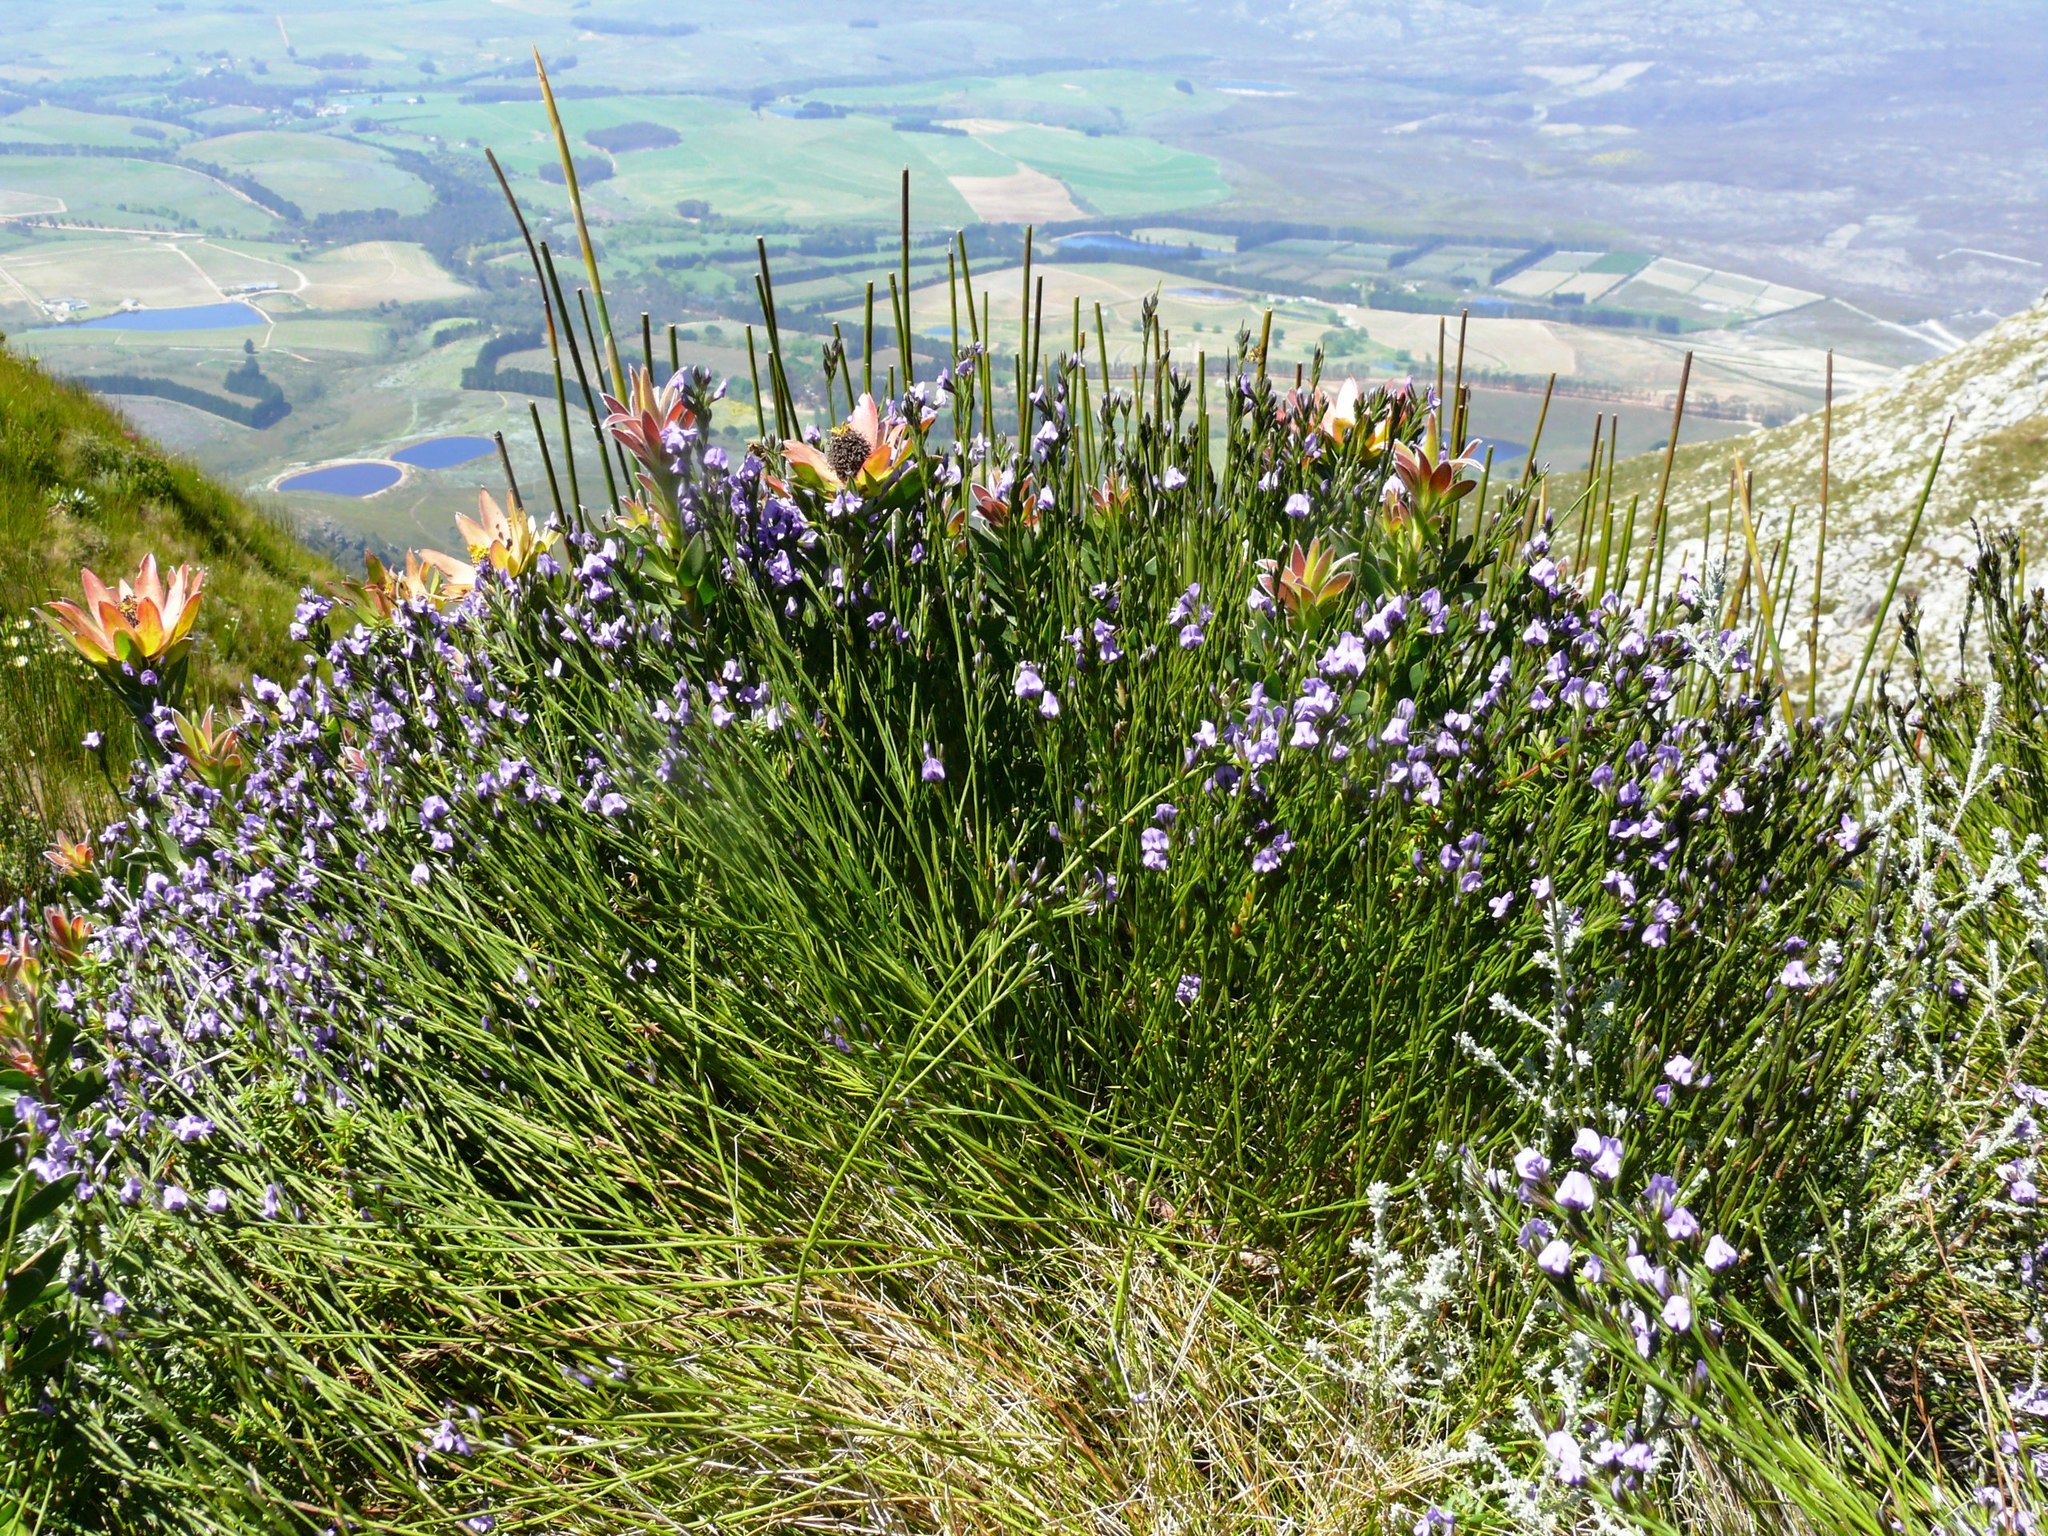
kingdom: Plantae
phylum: Tracheophyta
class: Magnoliopsida
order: Fabales
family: Fabaceae
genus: Psoralea
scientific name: Psoralea restioides
